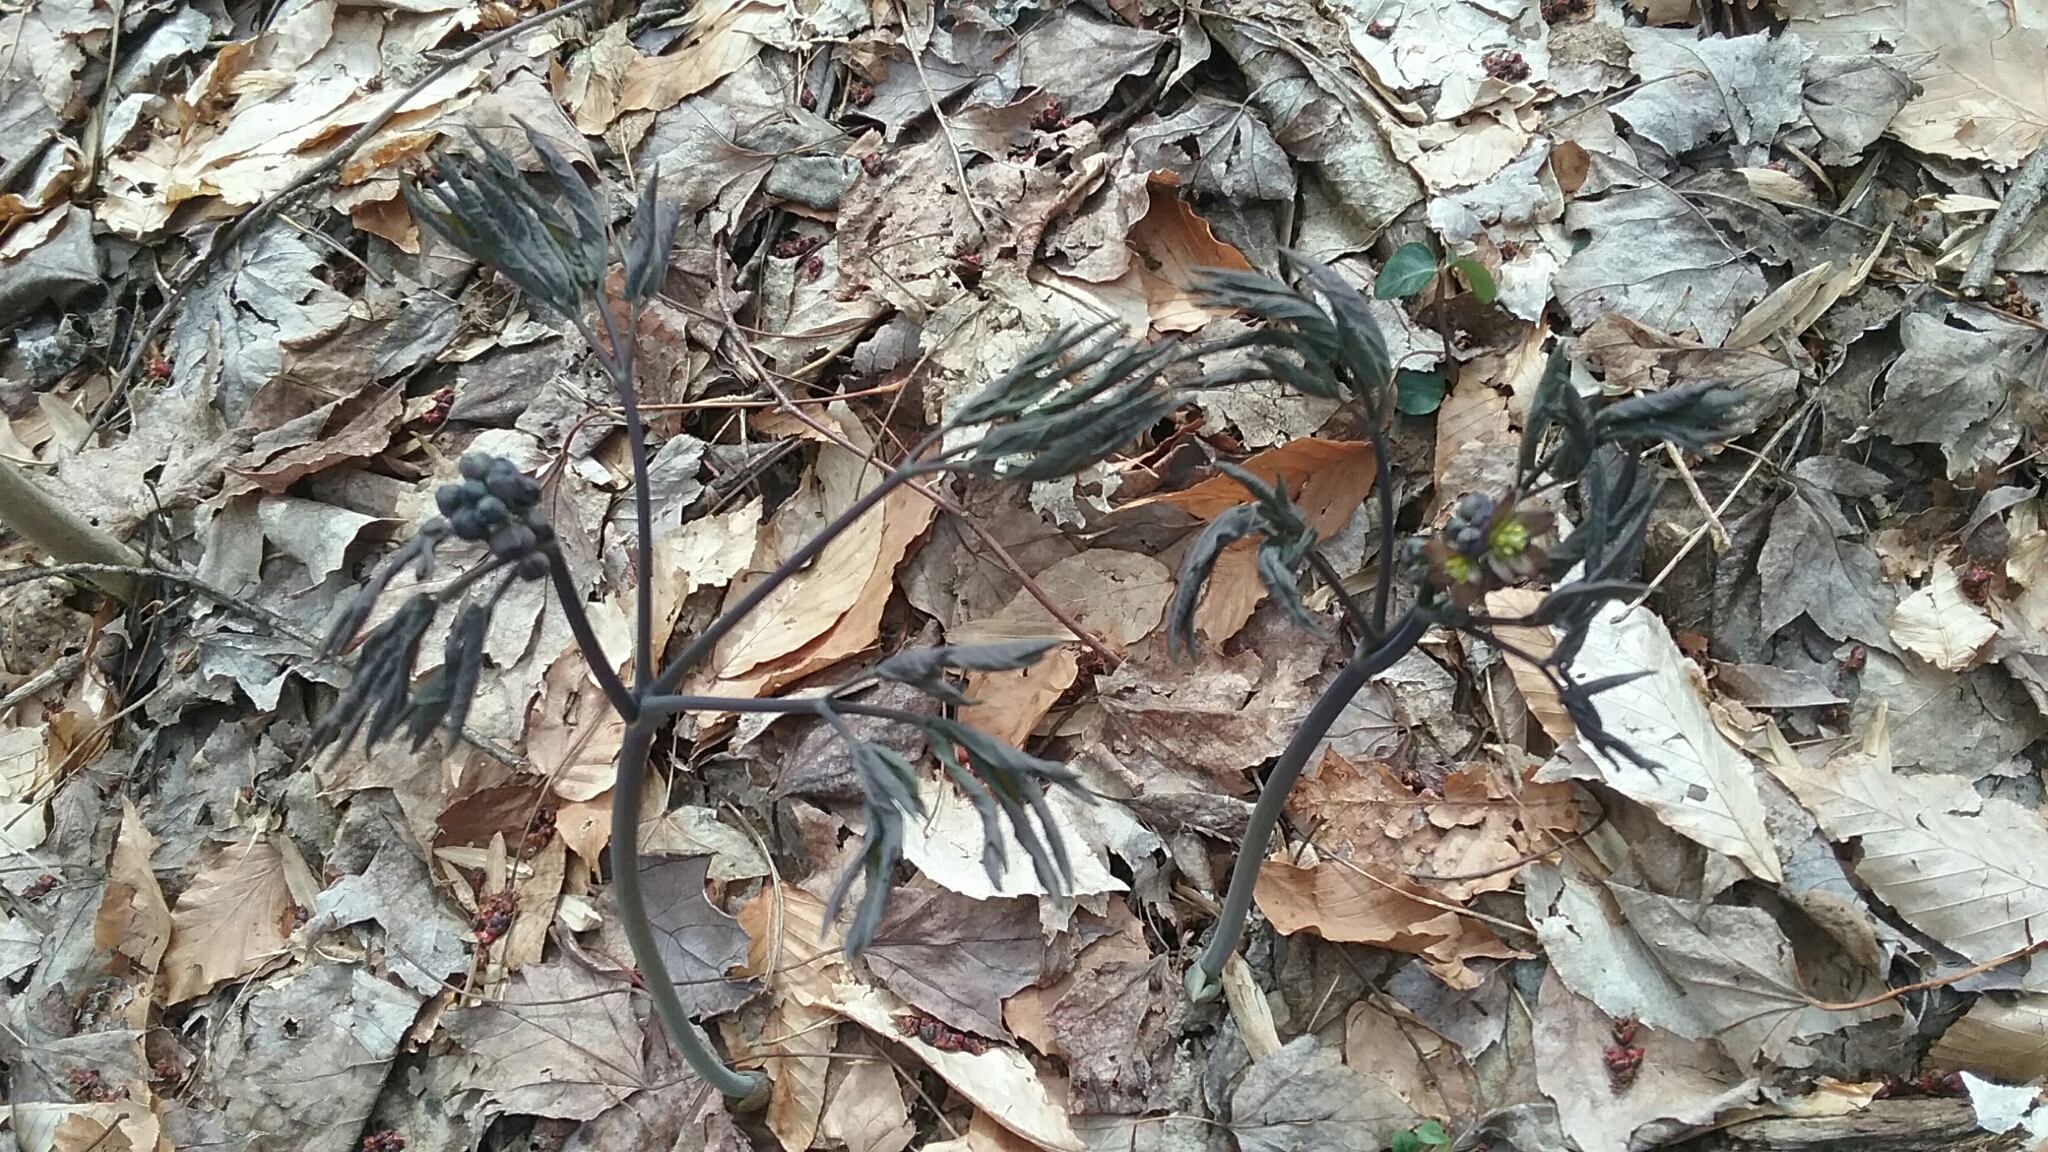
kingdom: Plantae
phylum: Tracheophyta
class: Magnoliopsida
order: Ranunculales
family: Berberidaceae
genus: Caulophyllum
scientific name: Caulophyllum giganteum
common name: Blue cohosh
